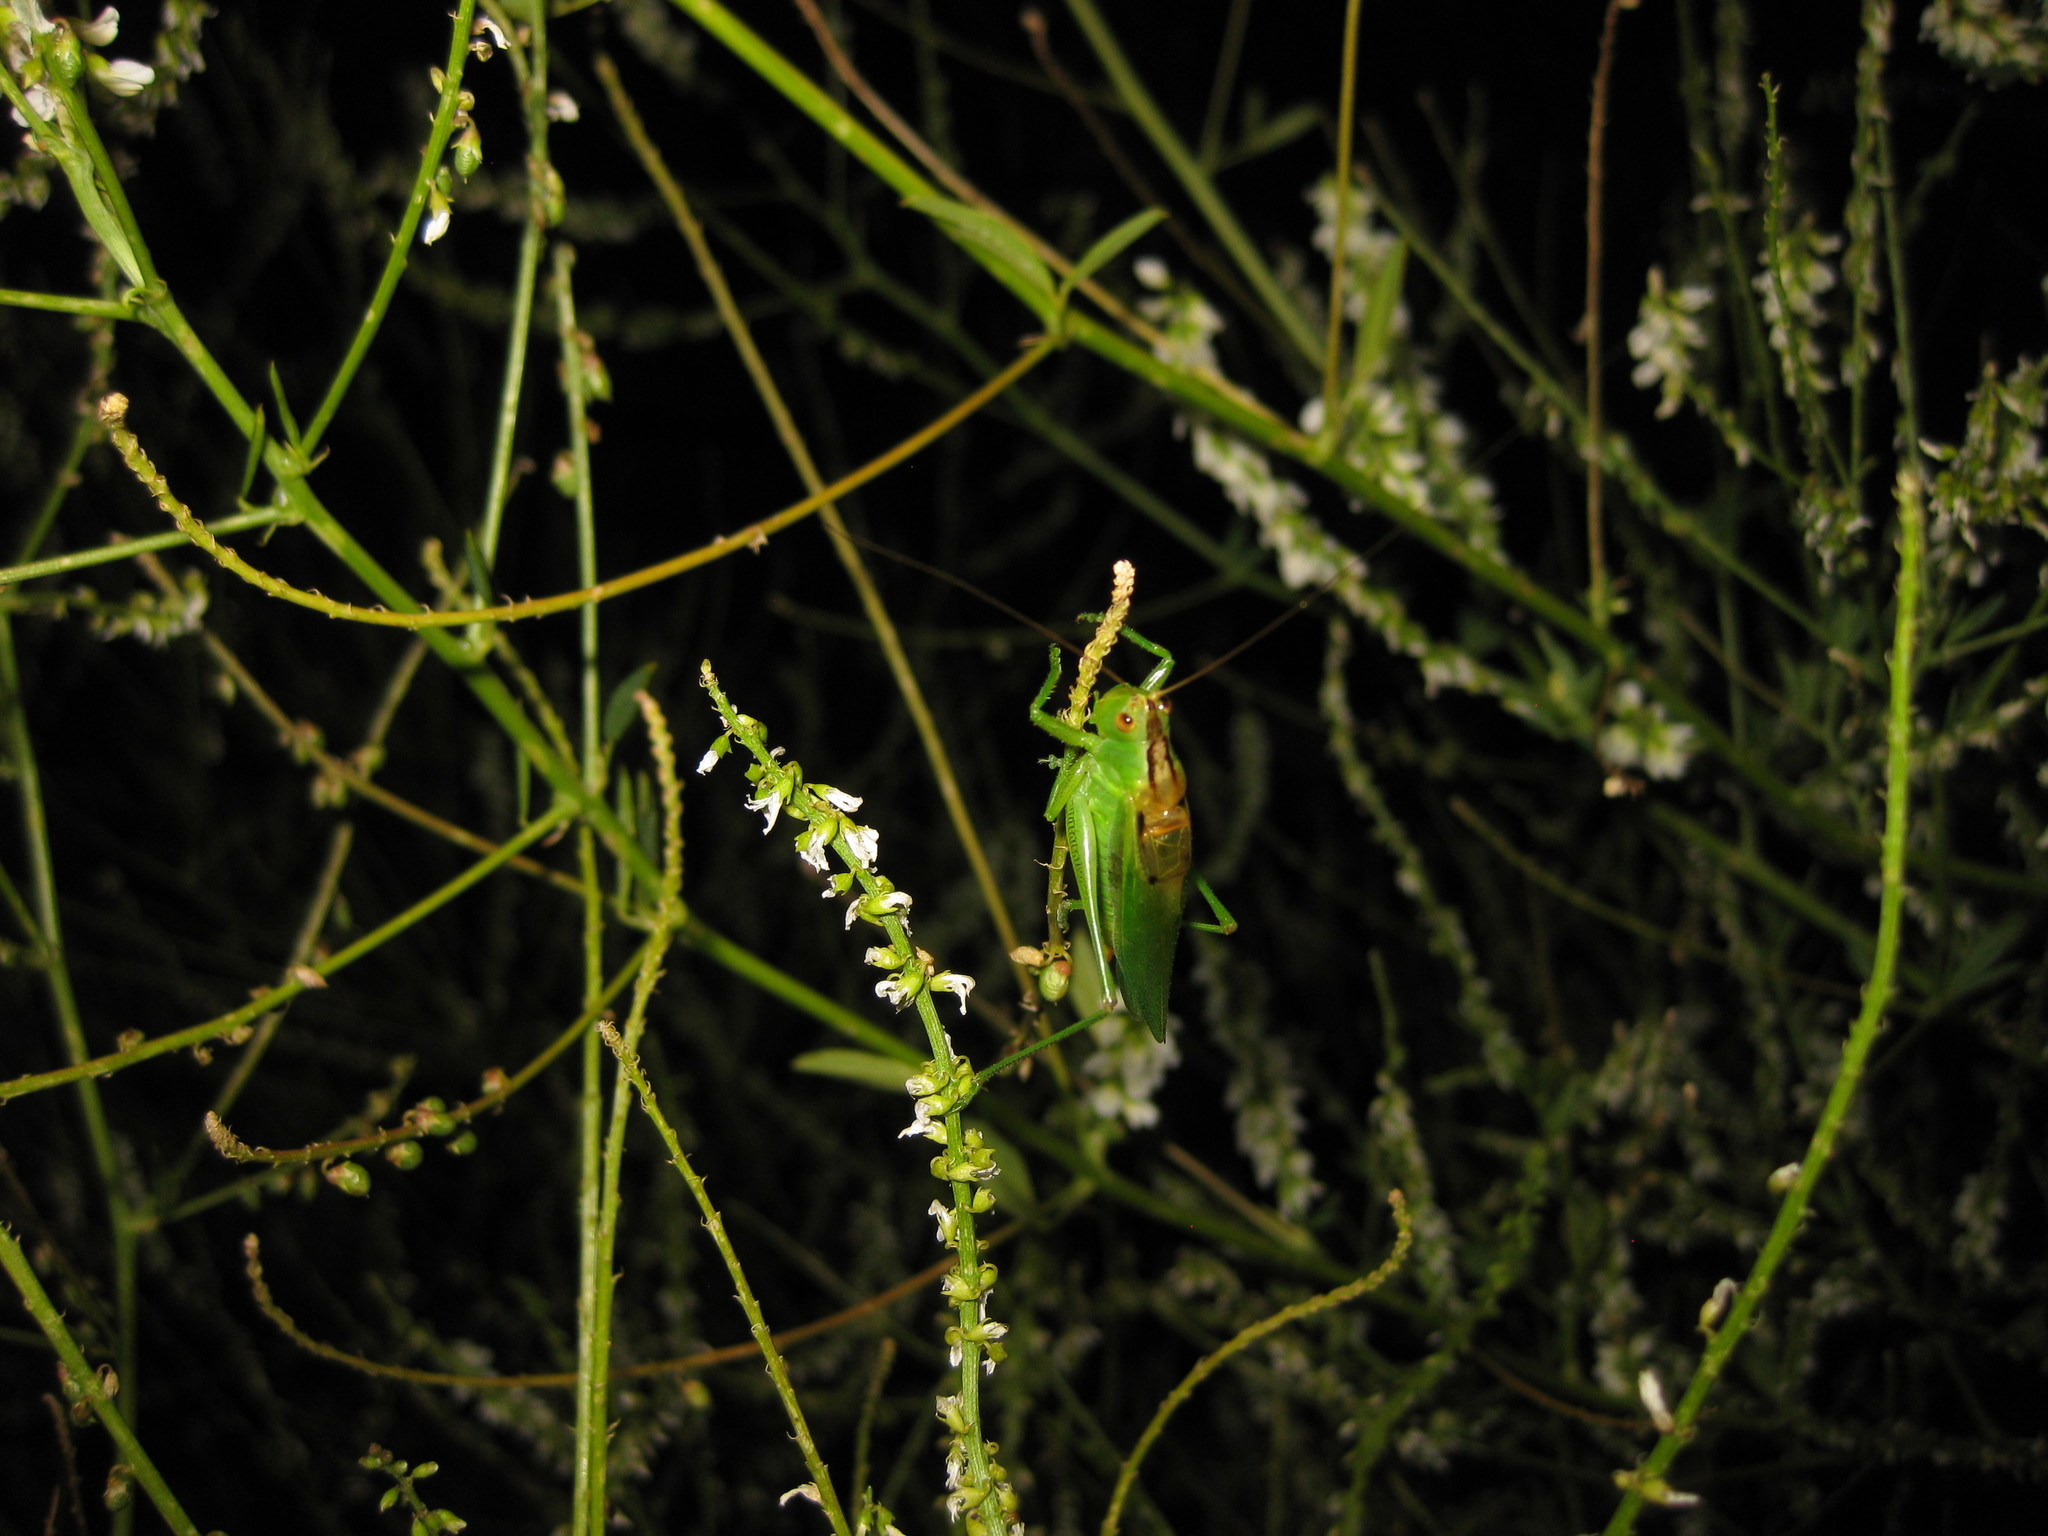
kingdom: Animalia
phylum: Arthropoda
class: Insecta
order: Orthoptera
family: Tettigoniidae
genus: Orchelimum
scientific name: Orchelimum gladiator
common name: Gladiator meadow katydid
